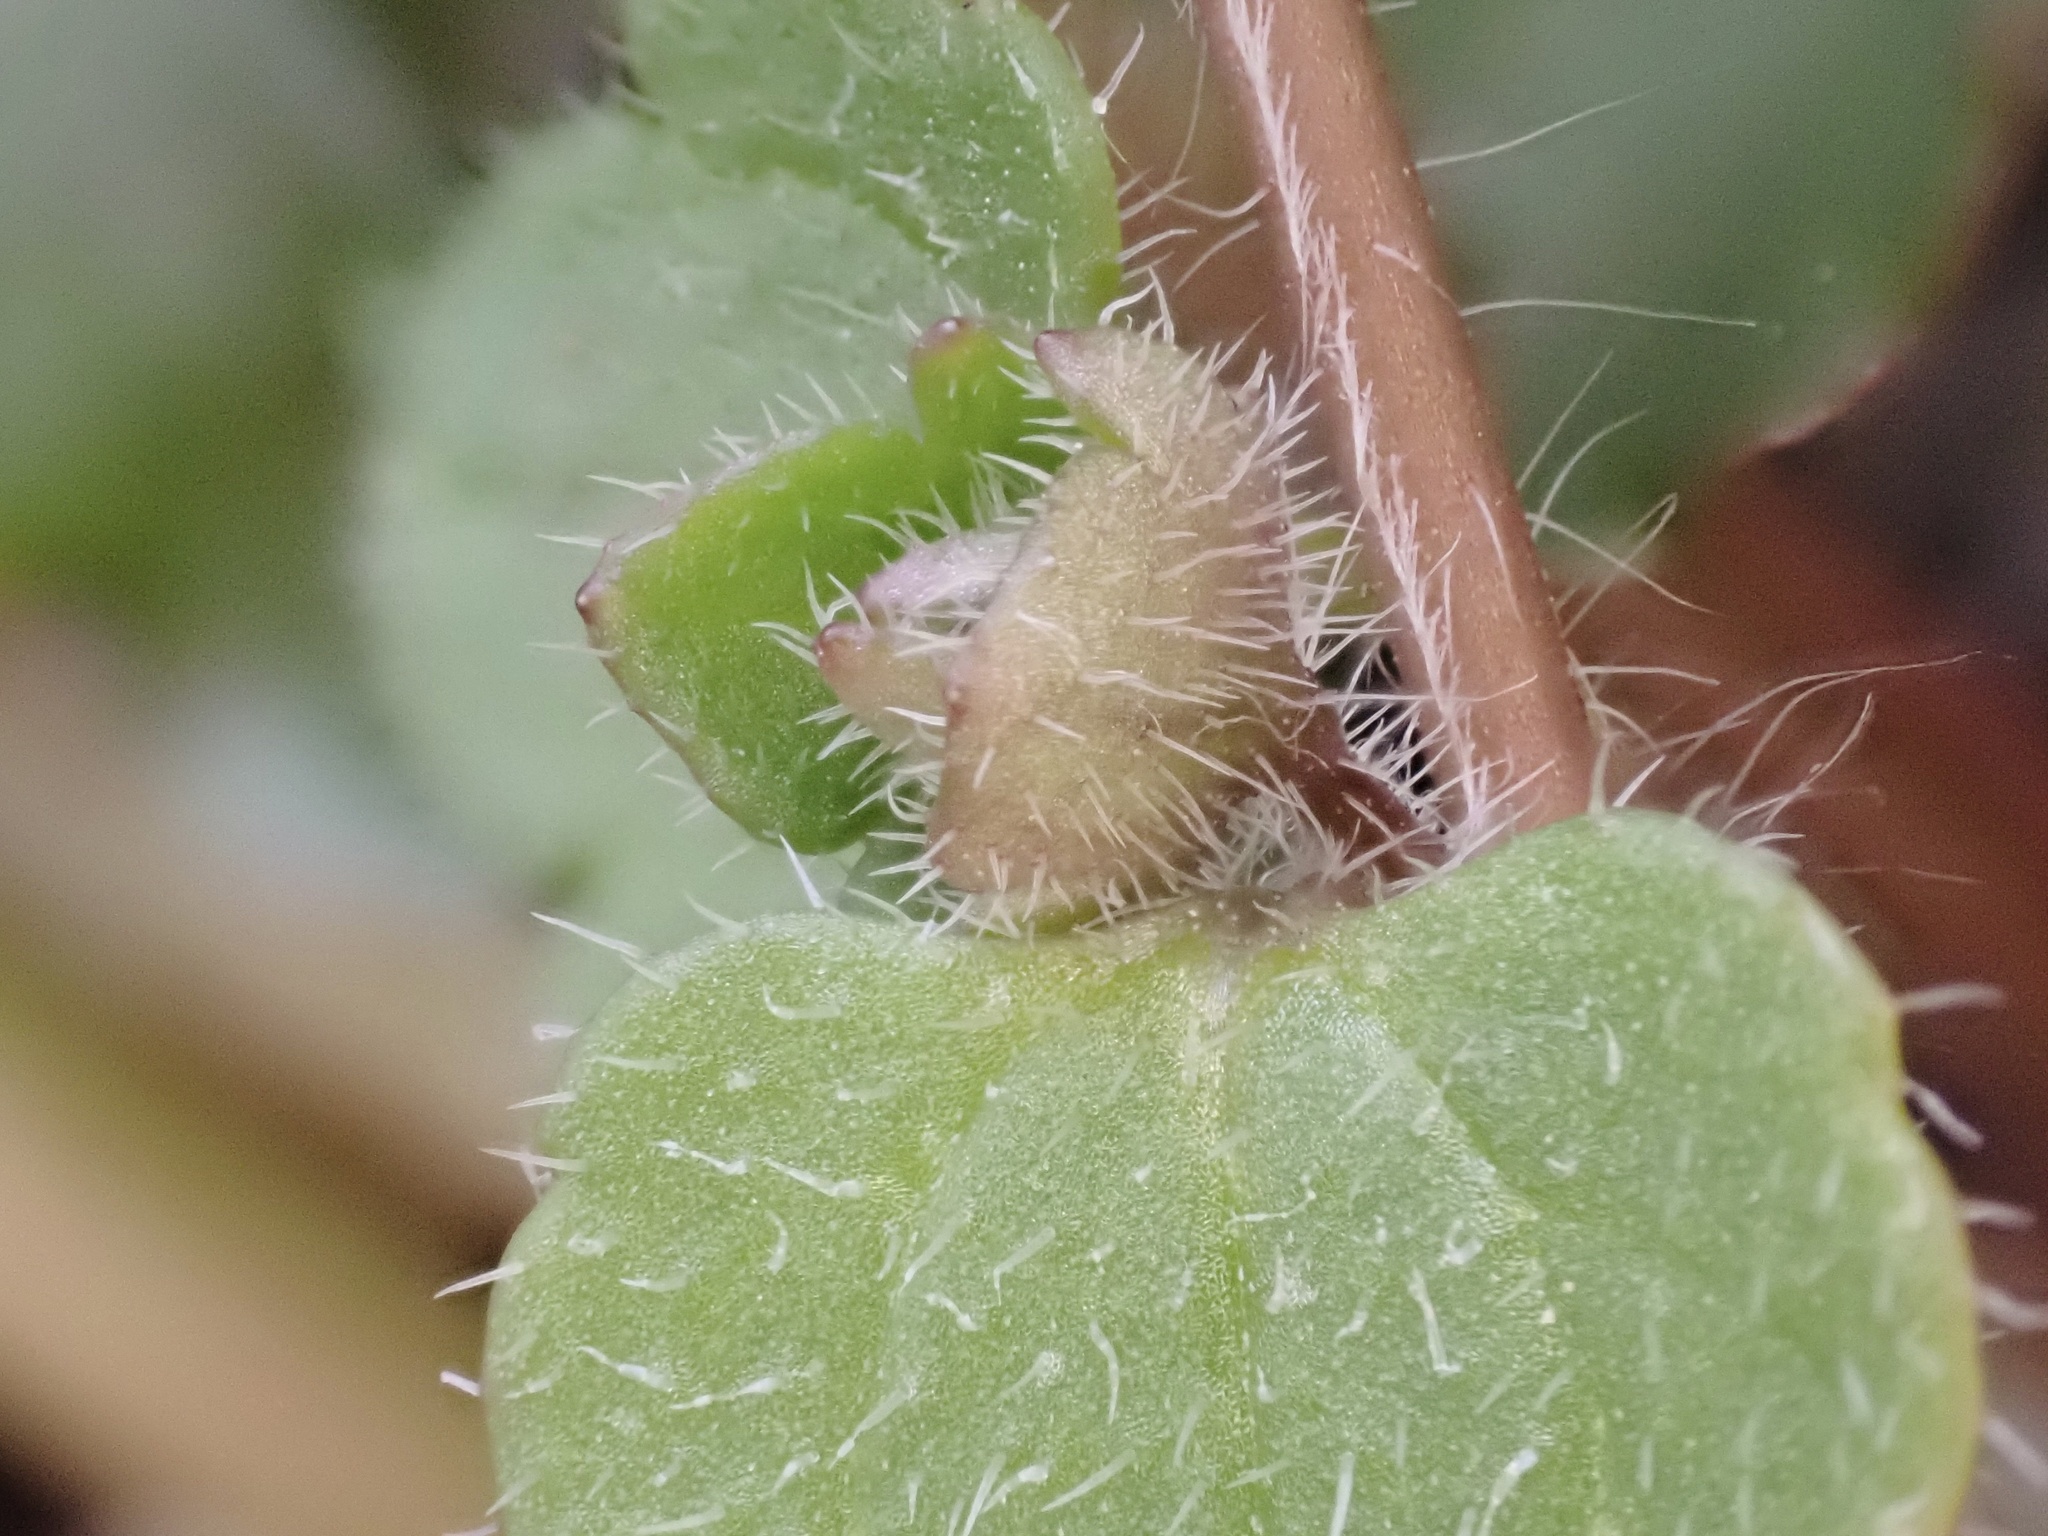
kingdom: Plantae
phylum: Tracheophyta
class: Magnoliopsida
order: Lamiales
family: Plantaginaceae
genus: Veronica
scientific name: Veronica hederifolia
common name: Ivy-leaved speedwell
